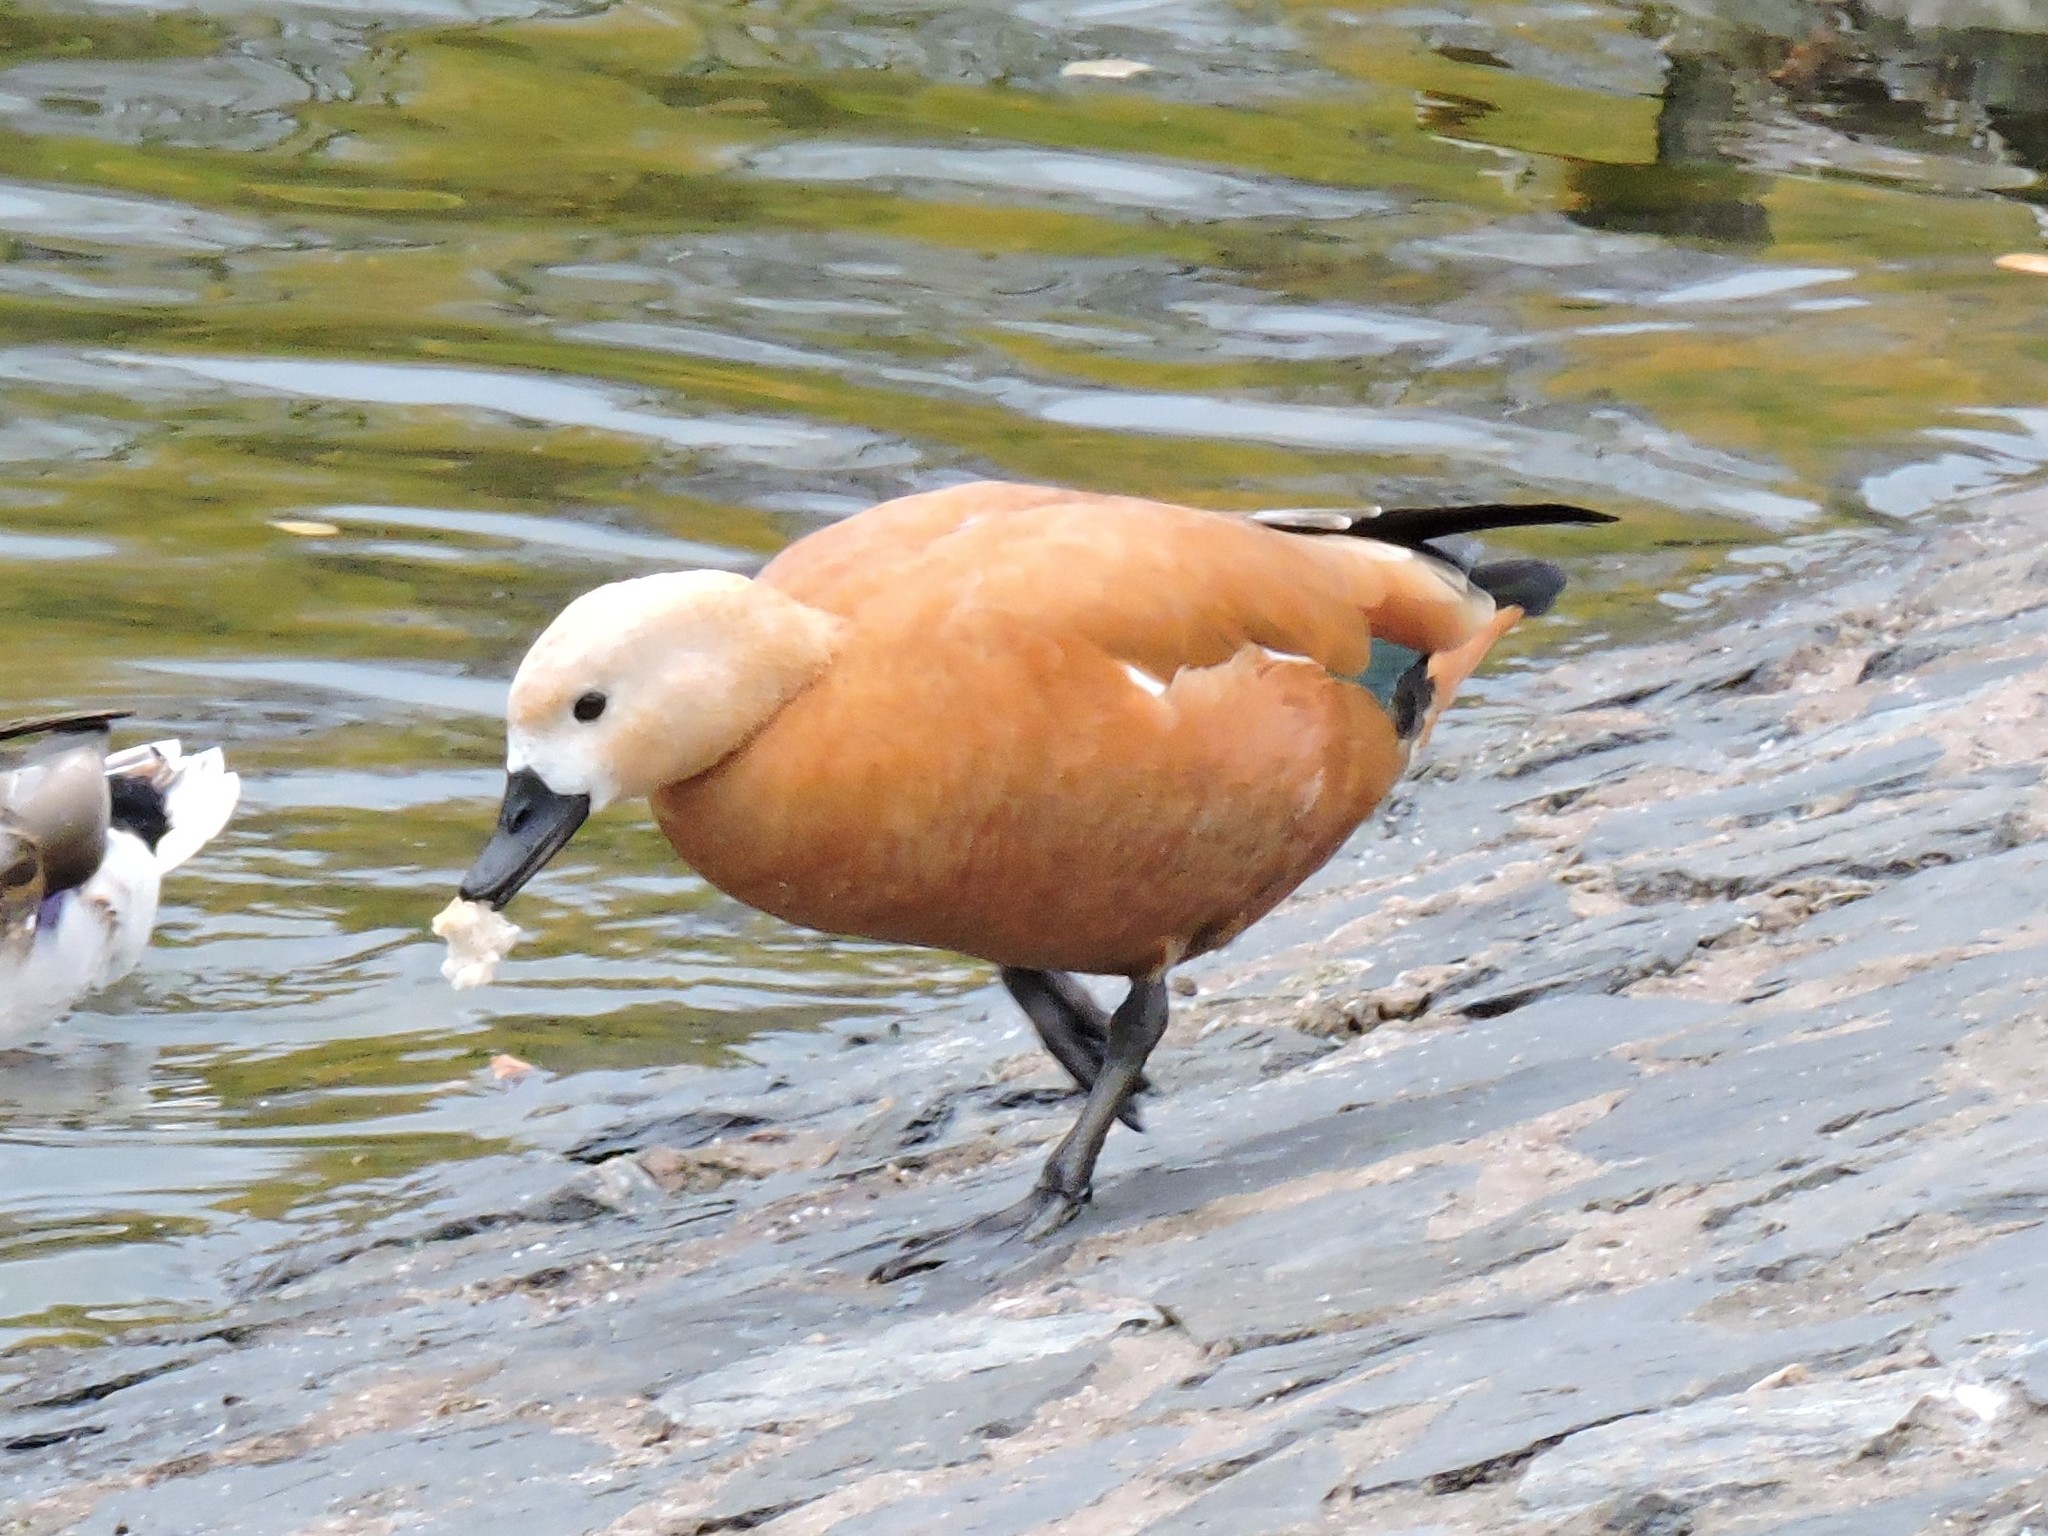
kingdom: Animalia
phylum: Chordata
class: Aves
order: Anseriformes
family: Anatidae
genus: Tadorna
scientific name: Tadorna ferruginea
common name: Ruddy shelduck
